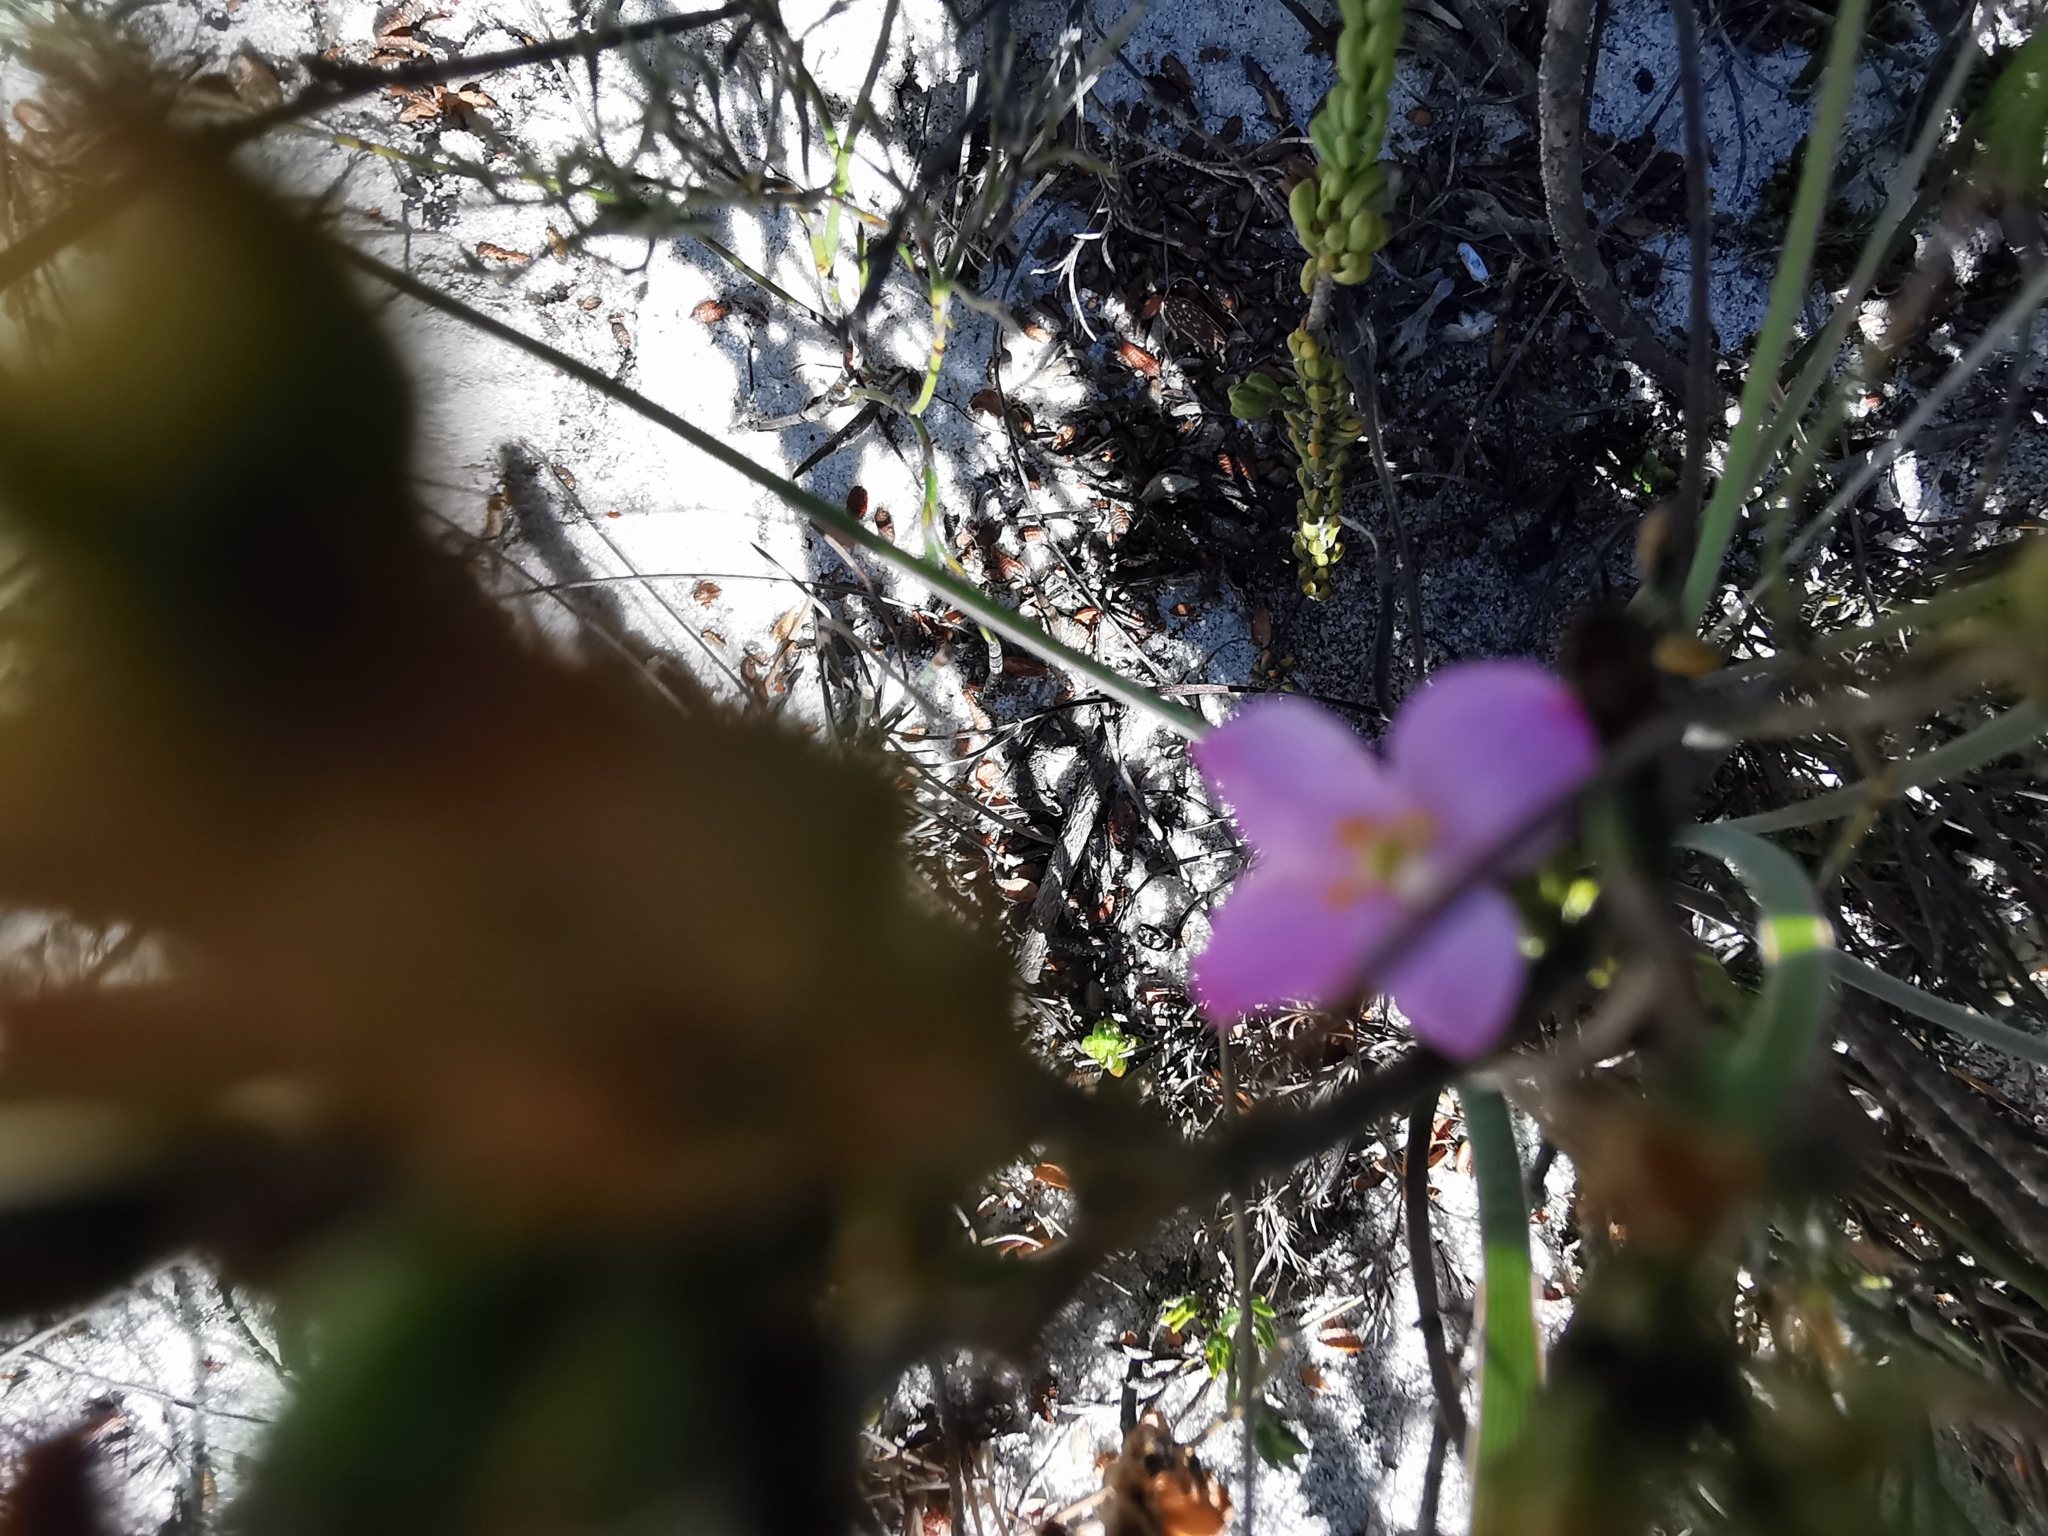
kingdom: Plantae
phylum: Tracheophyta
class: Magnoliopsida
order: Malvales
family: Thymelaeaceae
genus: Lachnaea
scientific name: Lachnaea grandiflora
